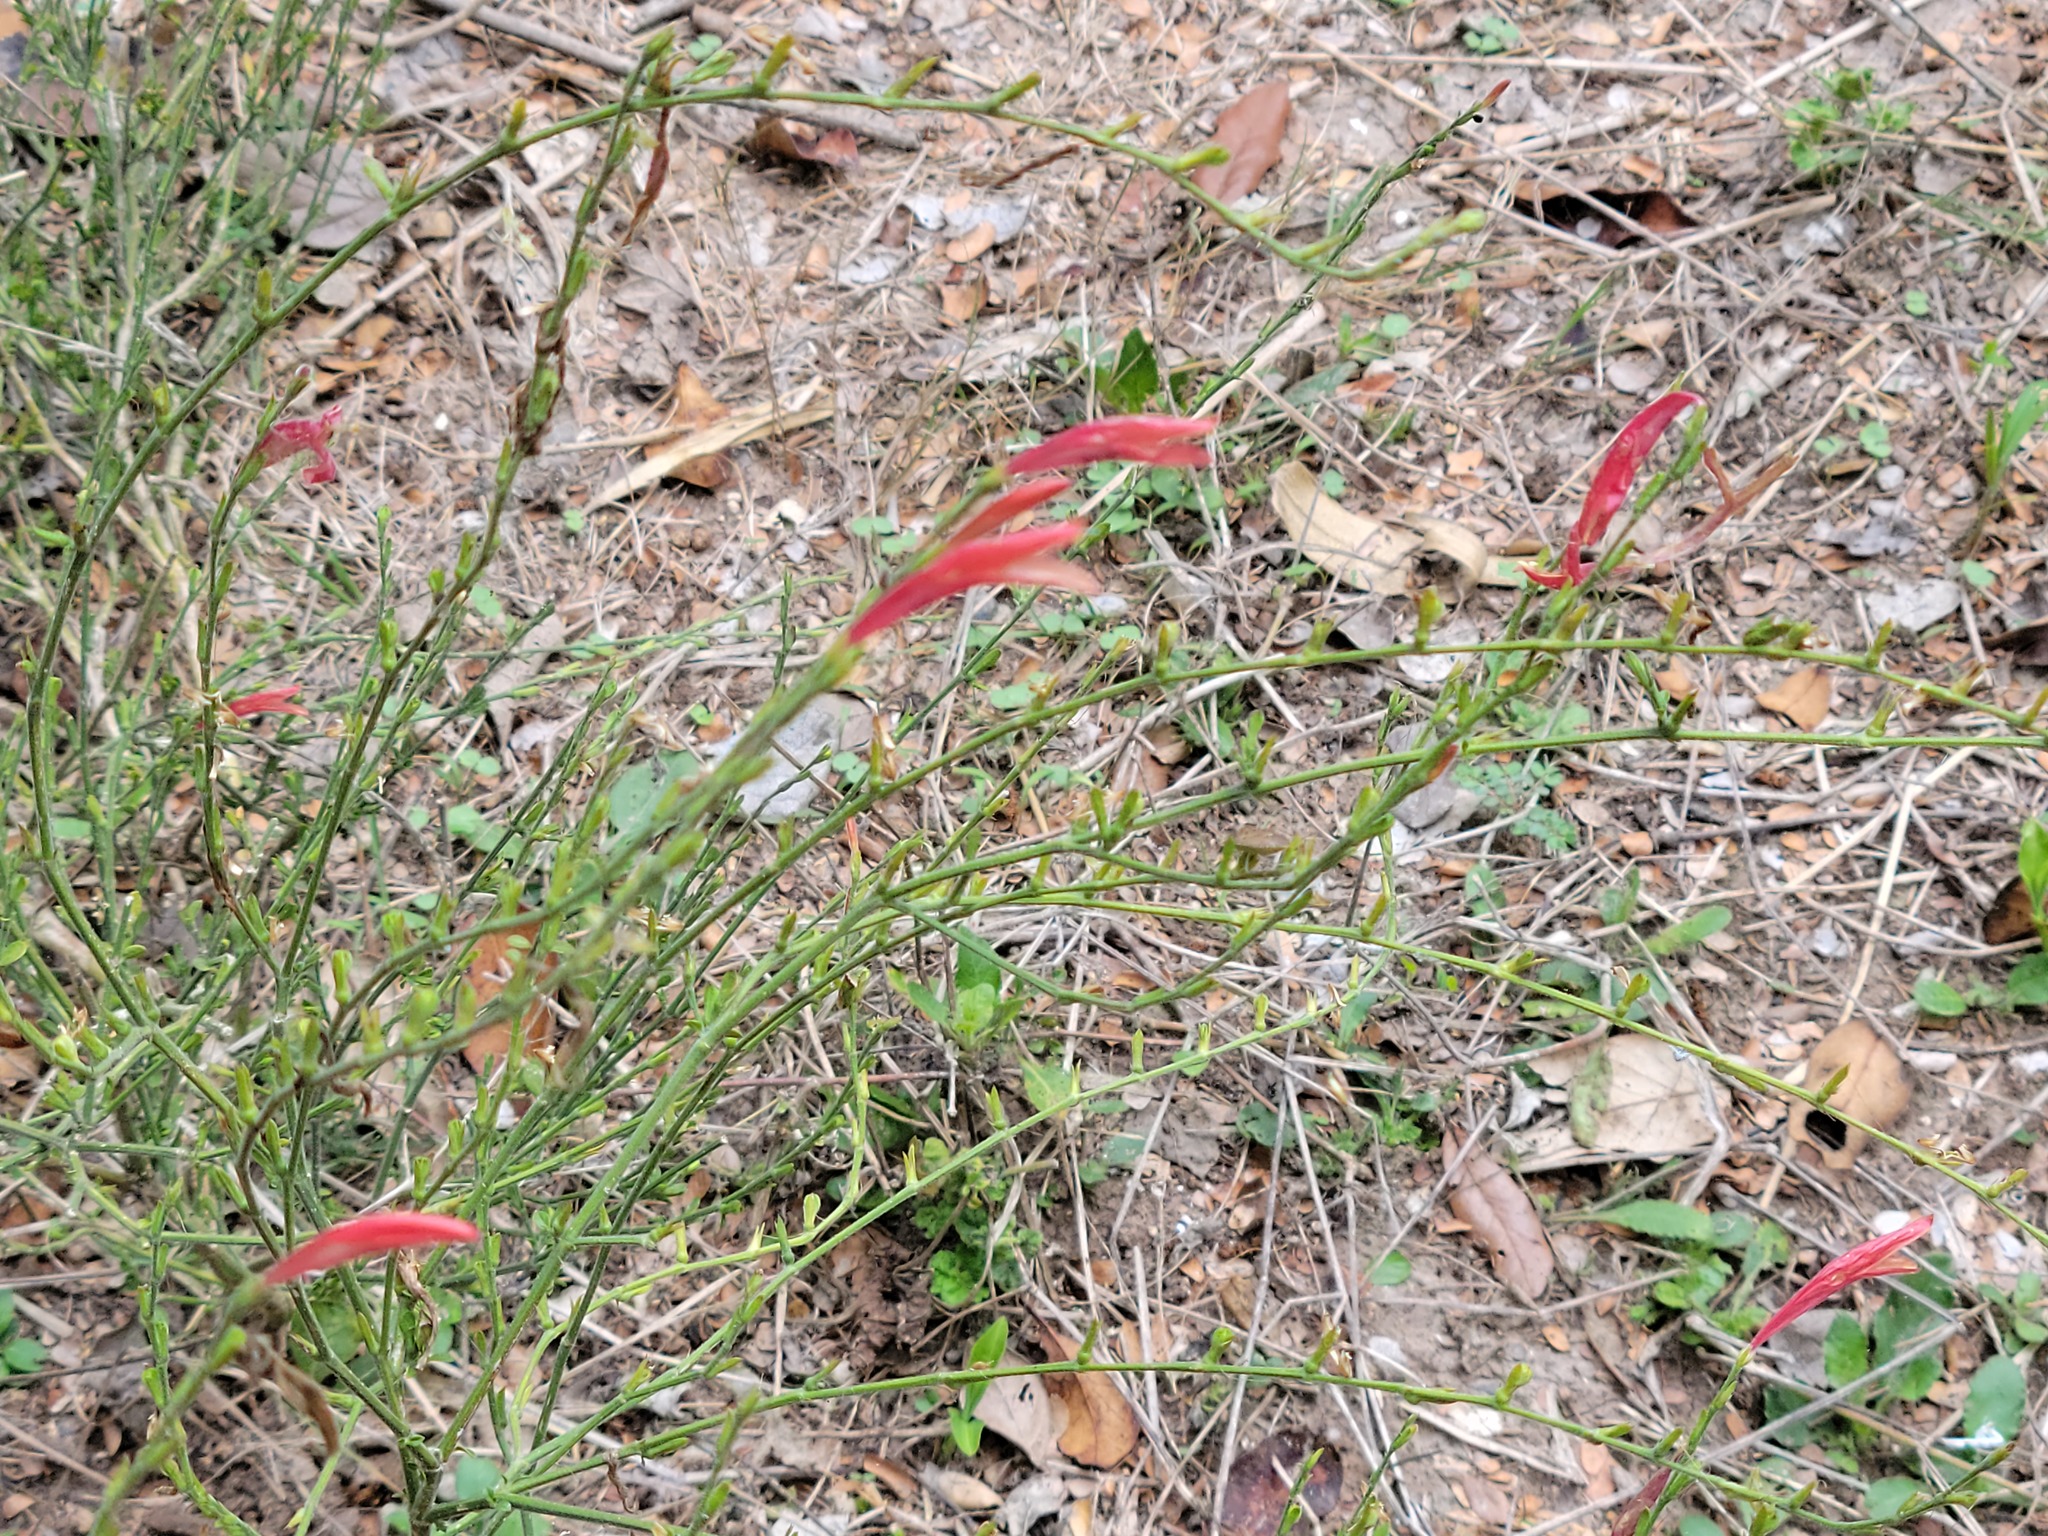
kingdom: Plantae
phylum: Tracheophyta
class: Magnoliopsida
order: Lamiales
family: Acanthaceae
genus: Dicliptera
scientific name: Dicliptera sexangularis
